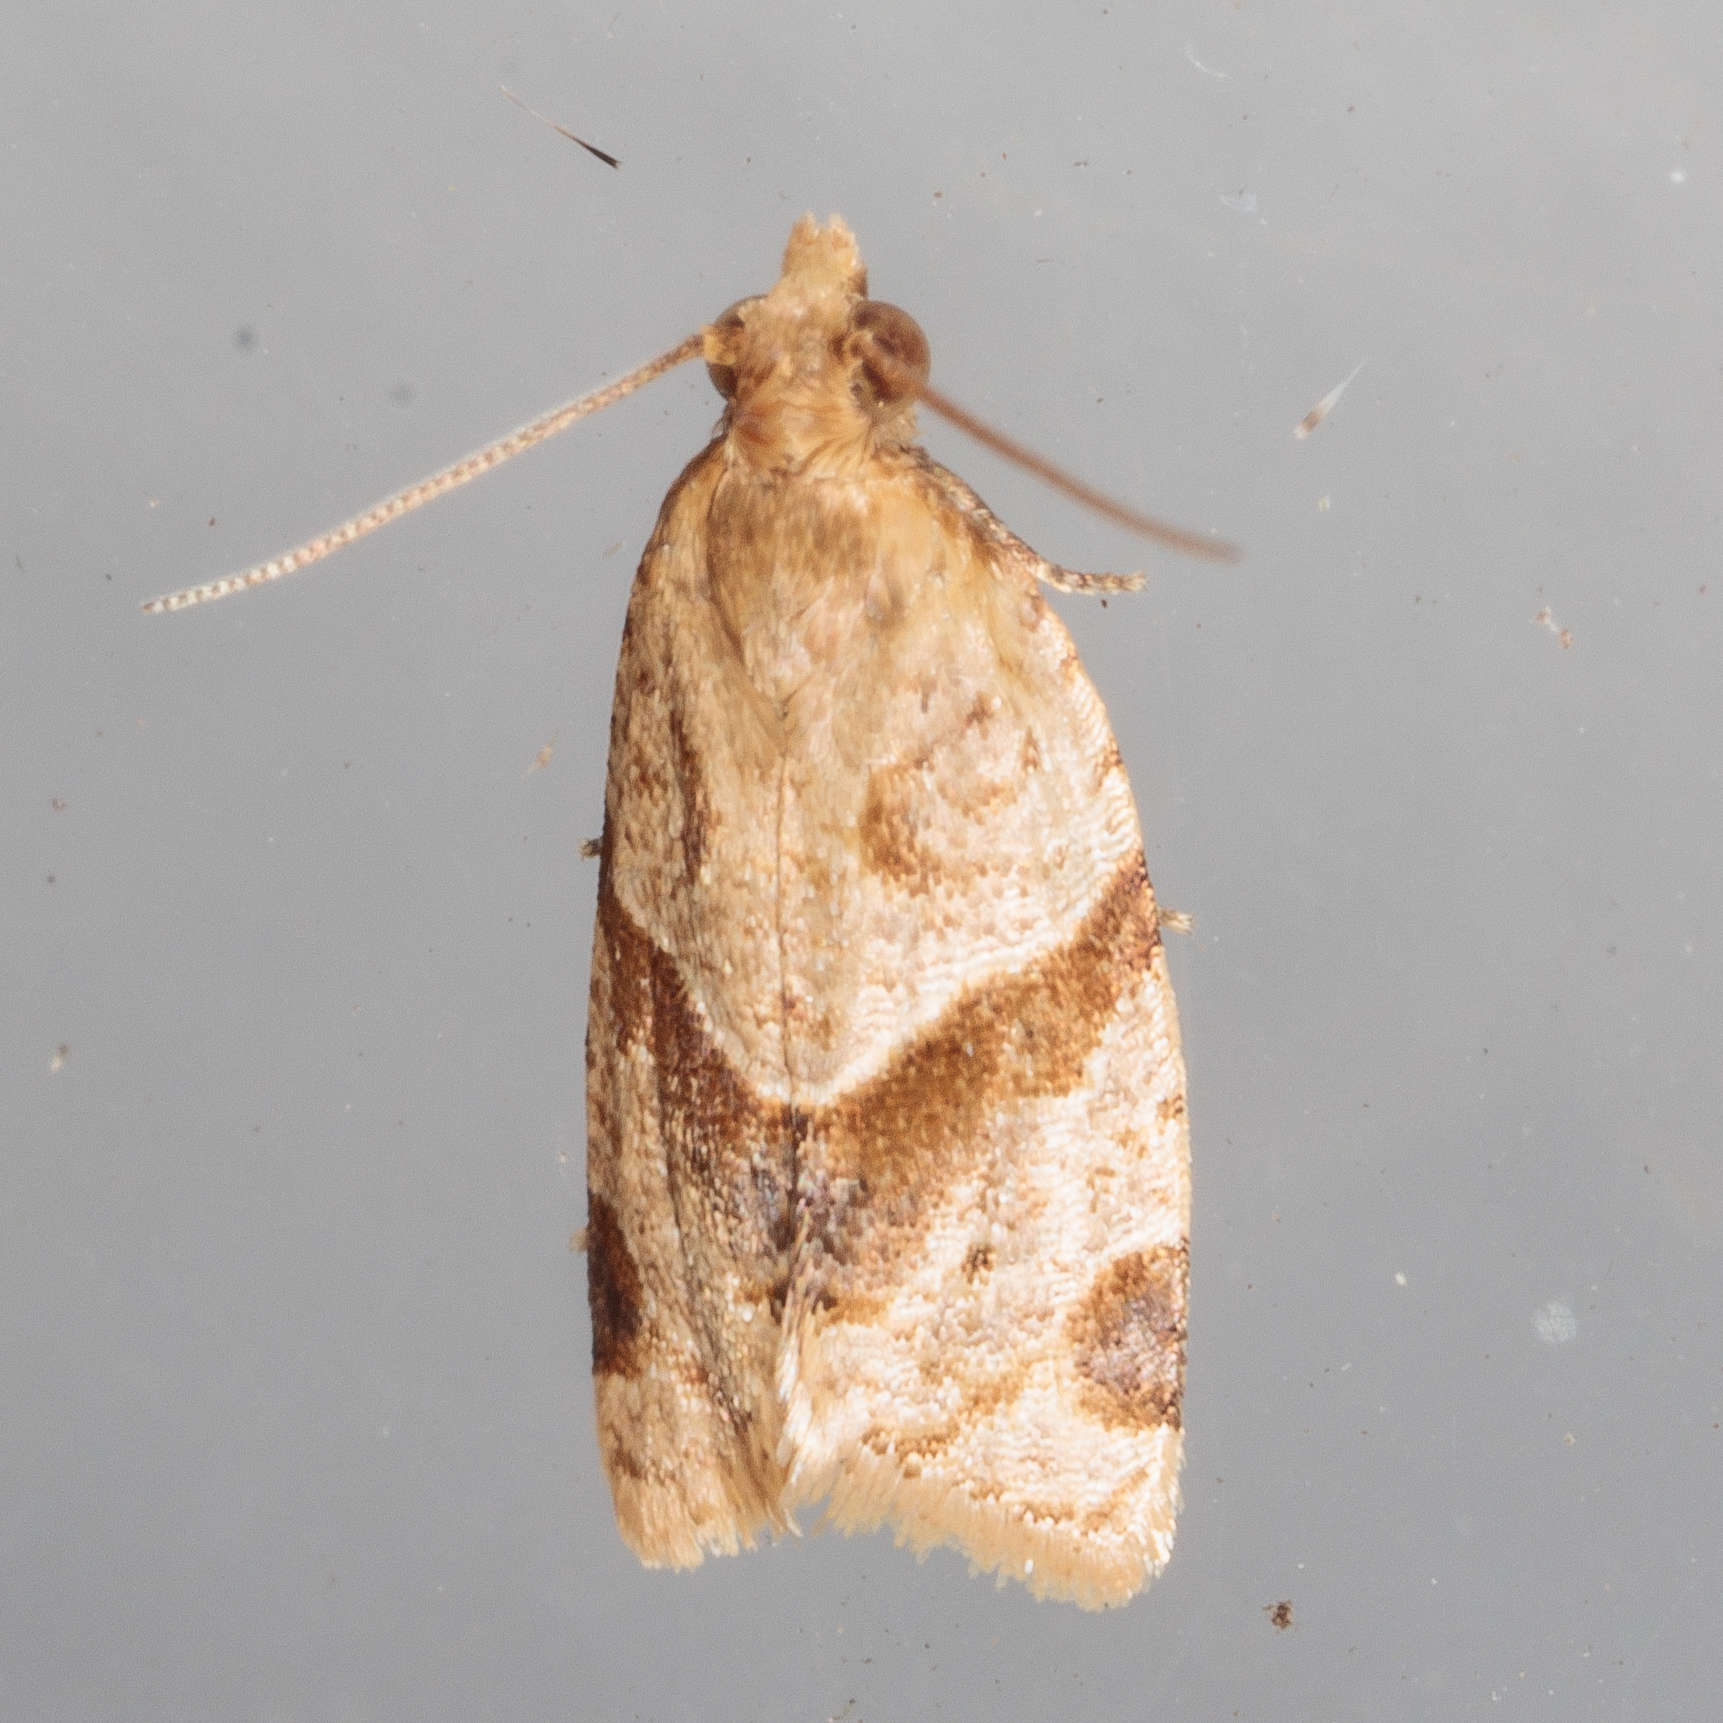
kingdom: Animalia
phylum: Arthropoda
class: Insecta
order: Lepidoptera
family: Tortricidae
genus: Clepsis
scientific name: Clepsis peritana
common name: Garden tortrix
